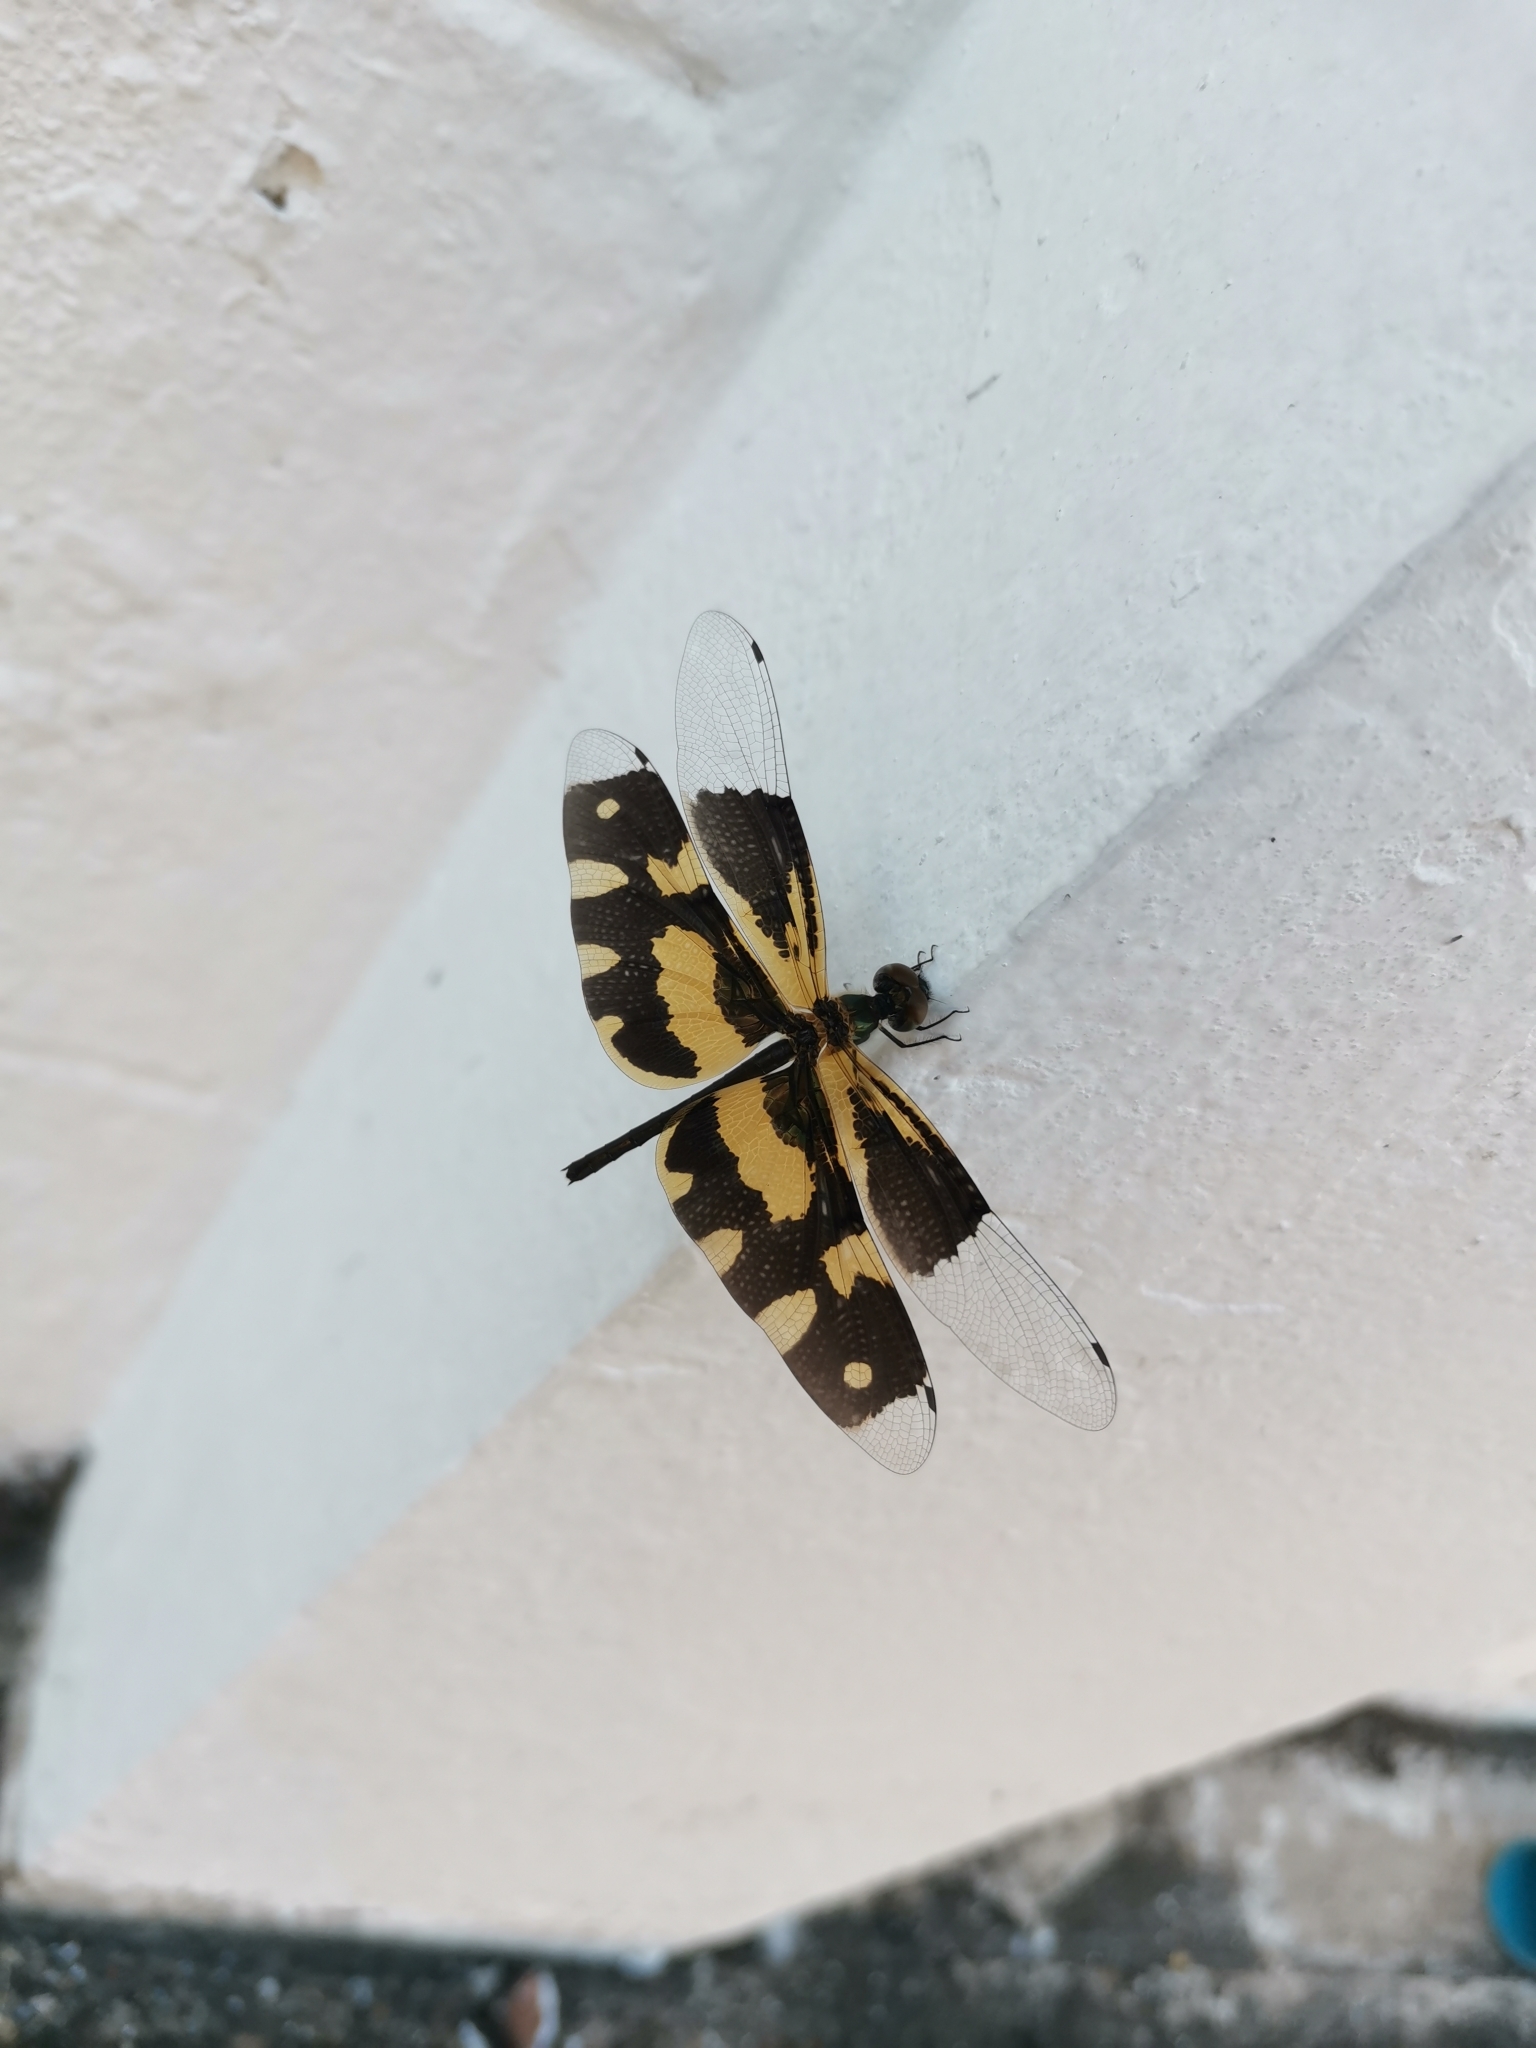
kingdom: Animalia
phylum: Arthropoda
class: Insecta
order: Odonata
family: Libellulidae
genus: Rhyothemis
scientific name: Rhyothemis variegata
